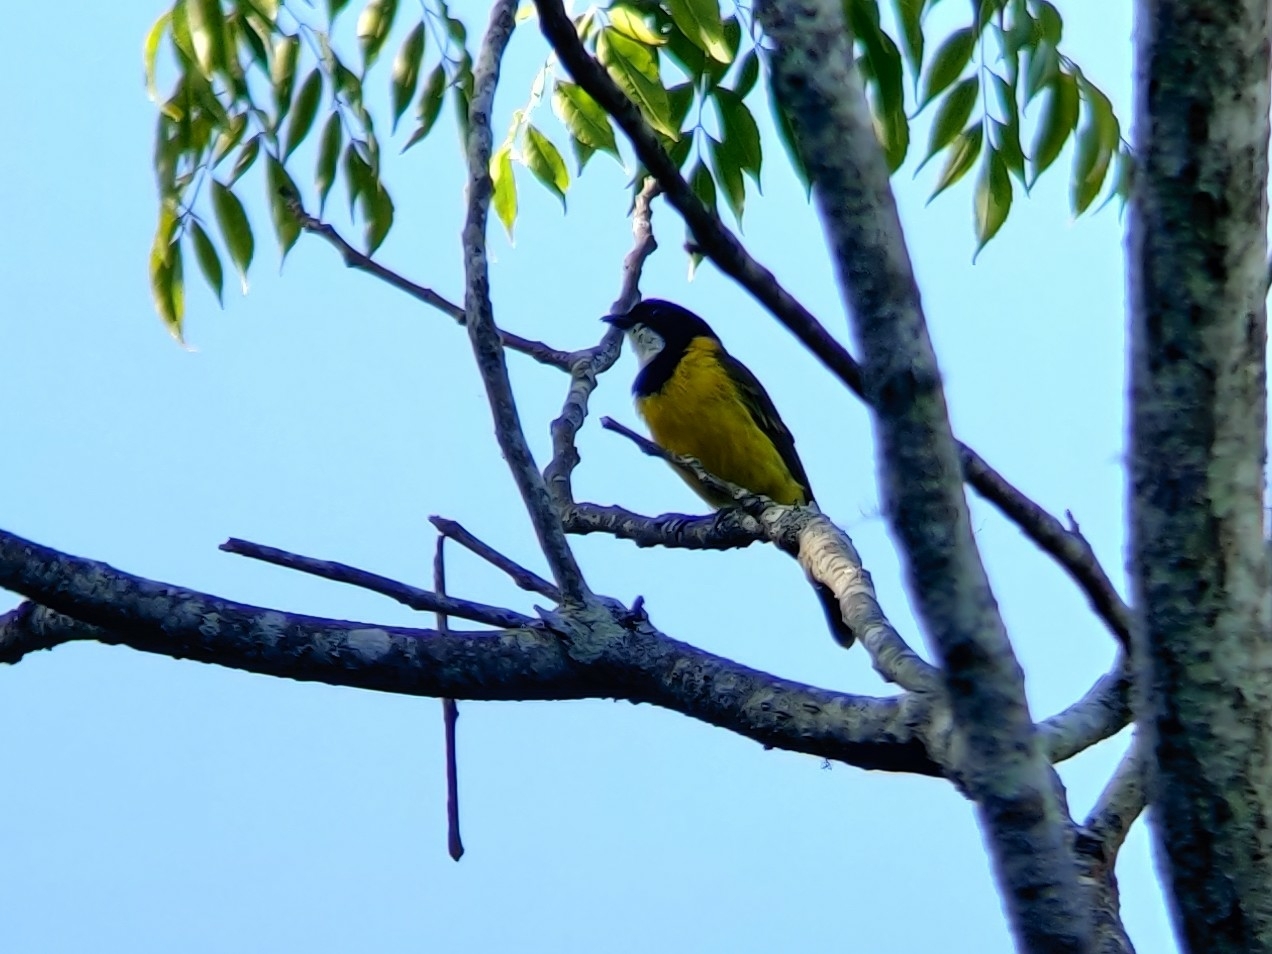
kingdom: Animalia
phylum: Chordata
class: Aves
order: Passeriformes
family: Pachycephalidae
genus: Pachycephala
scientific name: Pachycephala pectoralis
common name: Australian golden whistler
